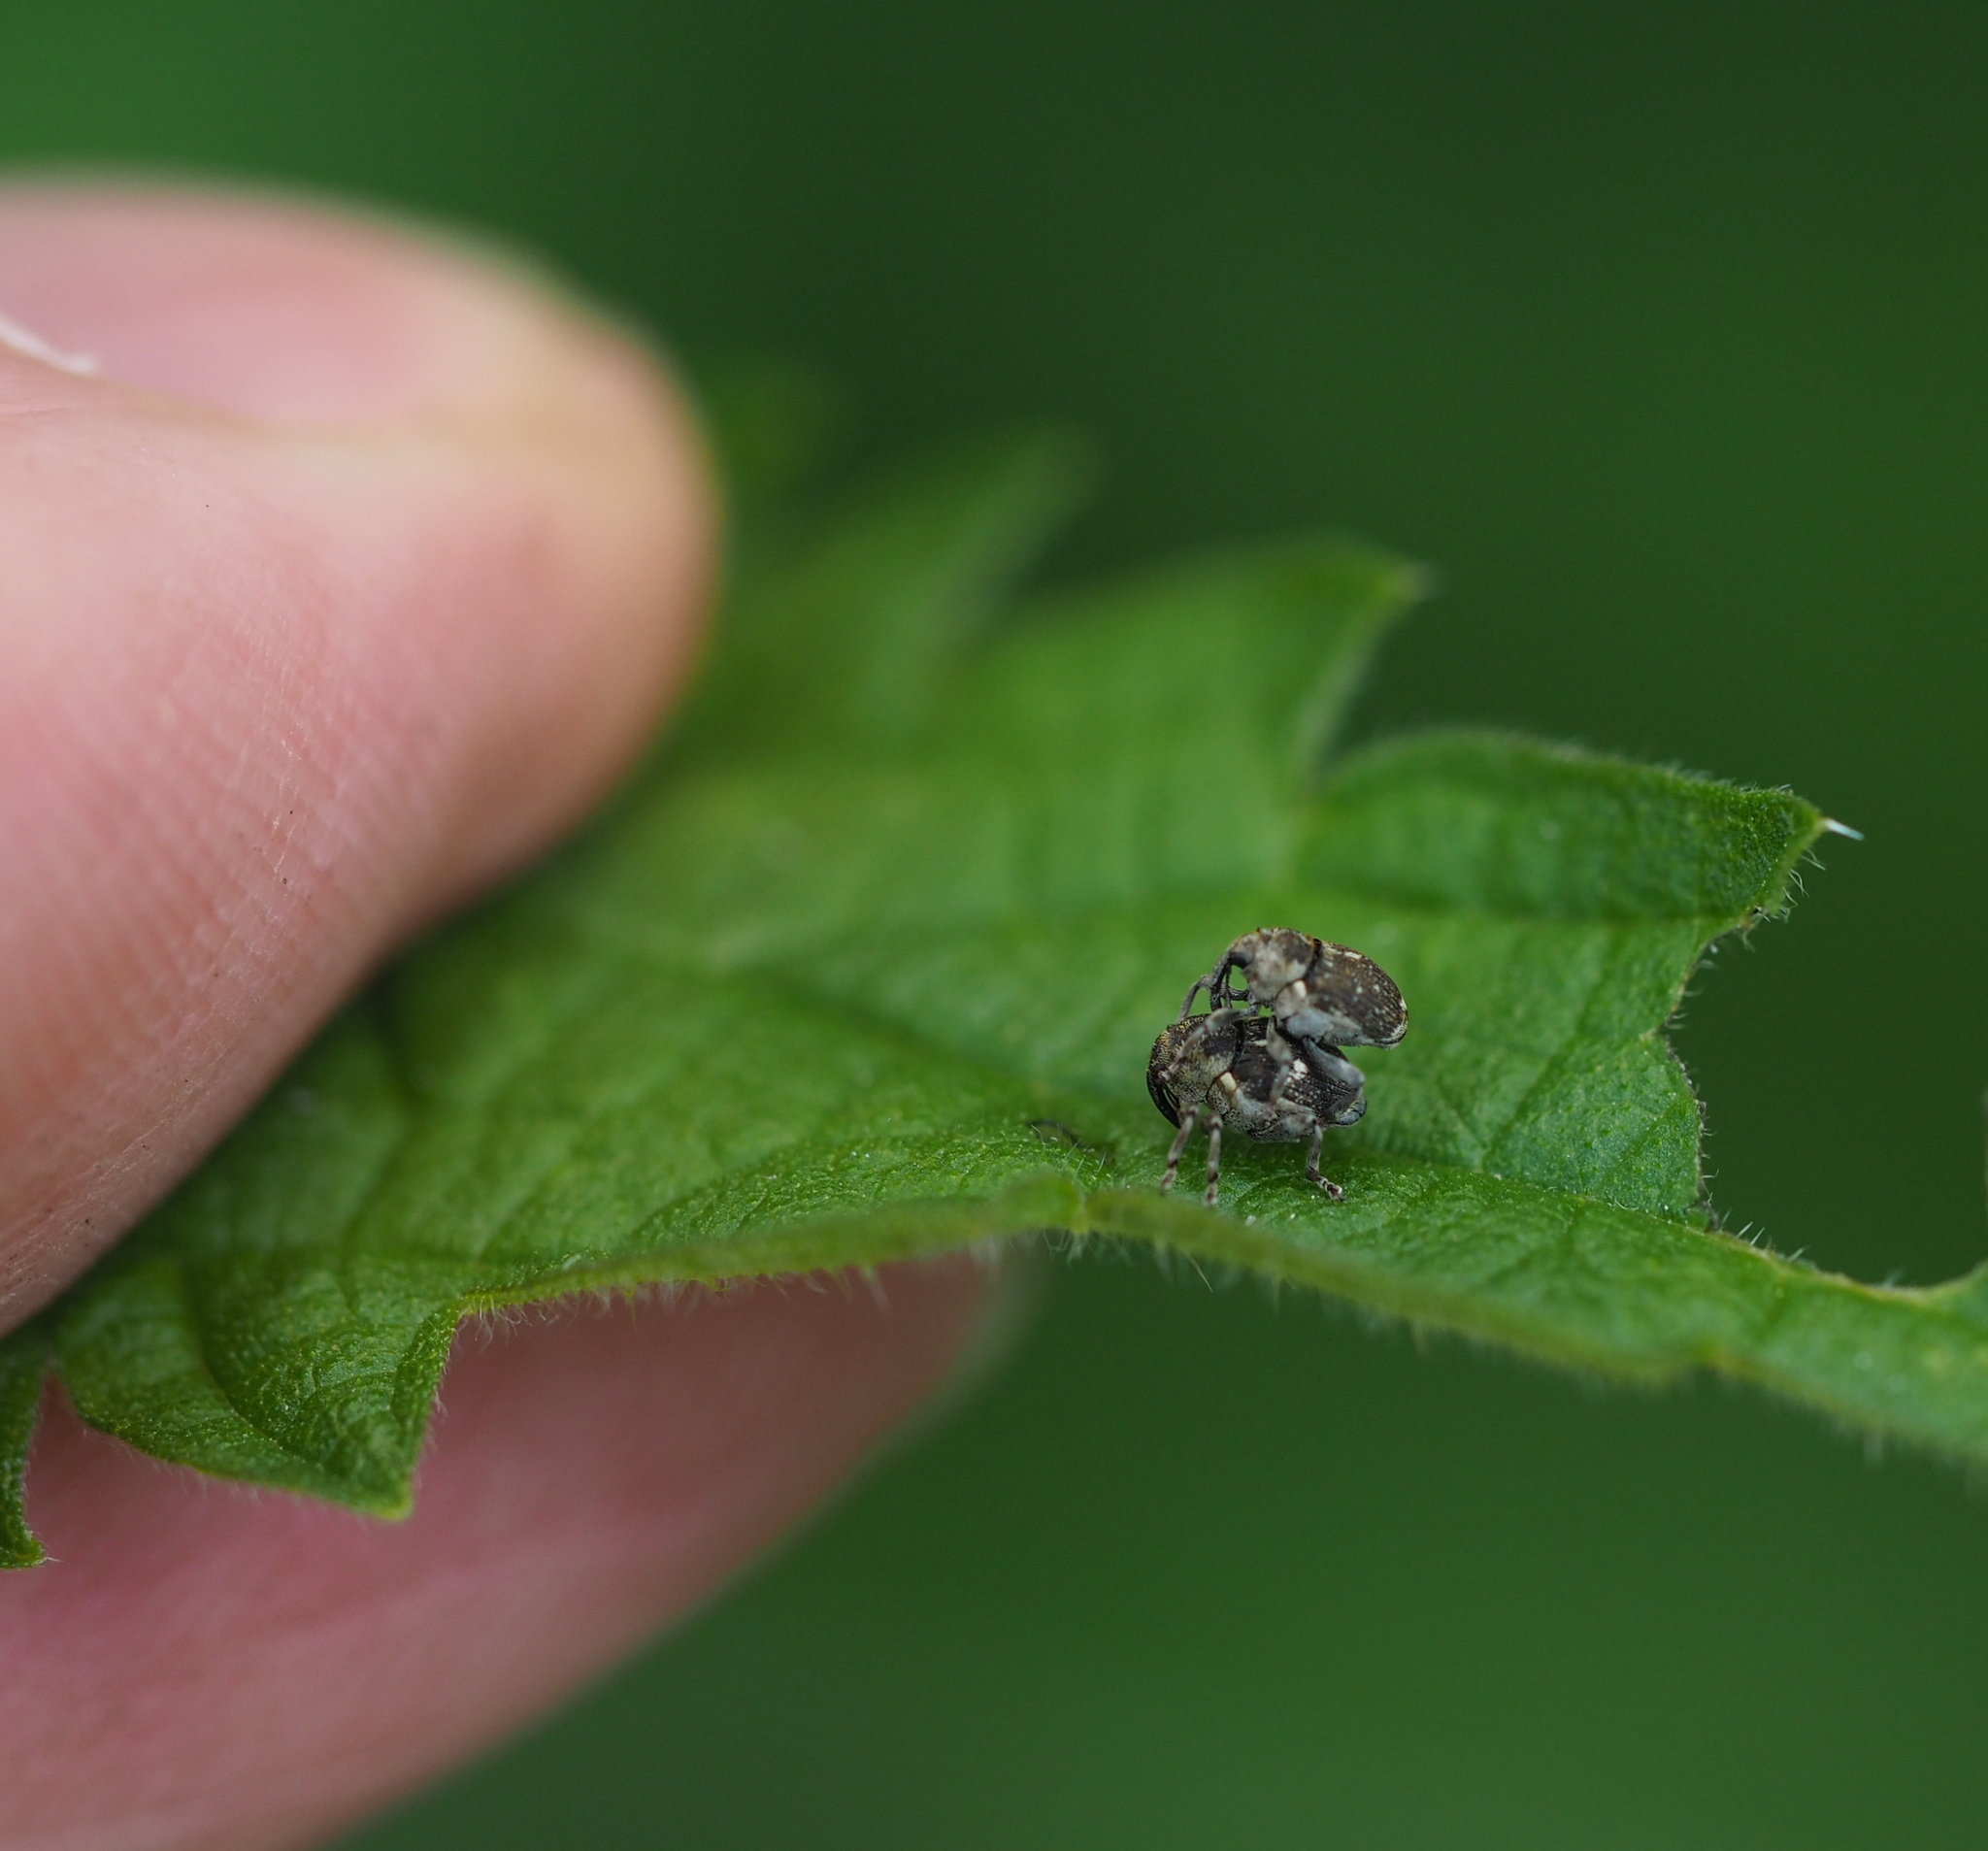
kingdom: Animalia
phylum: Arthropoda
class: Insecta
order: Coleoptera
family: Curculionidae
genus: Nedyus
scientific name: Nedyus quadrimaculatus
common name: Small nettle weevil
